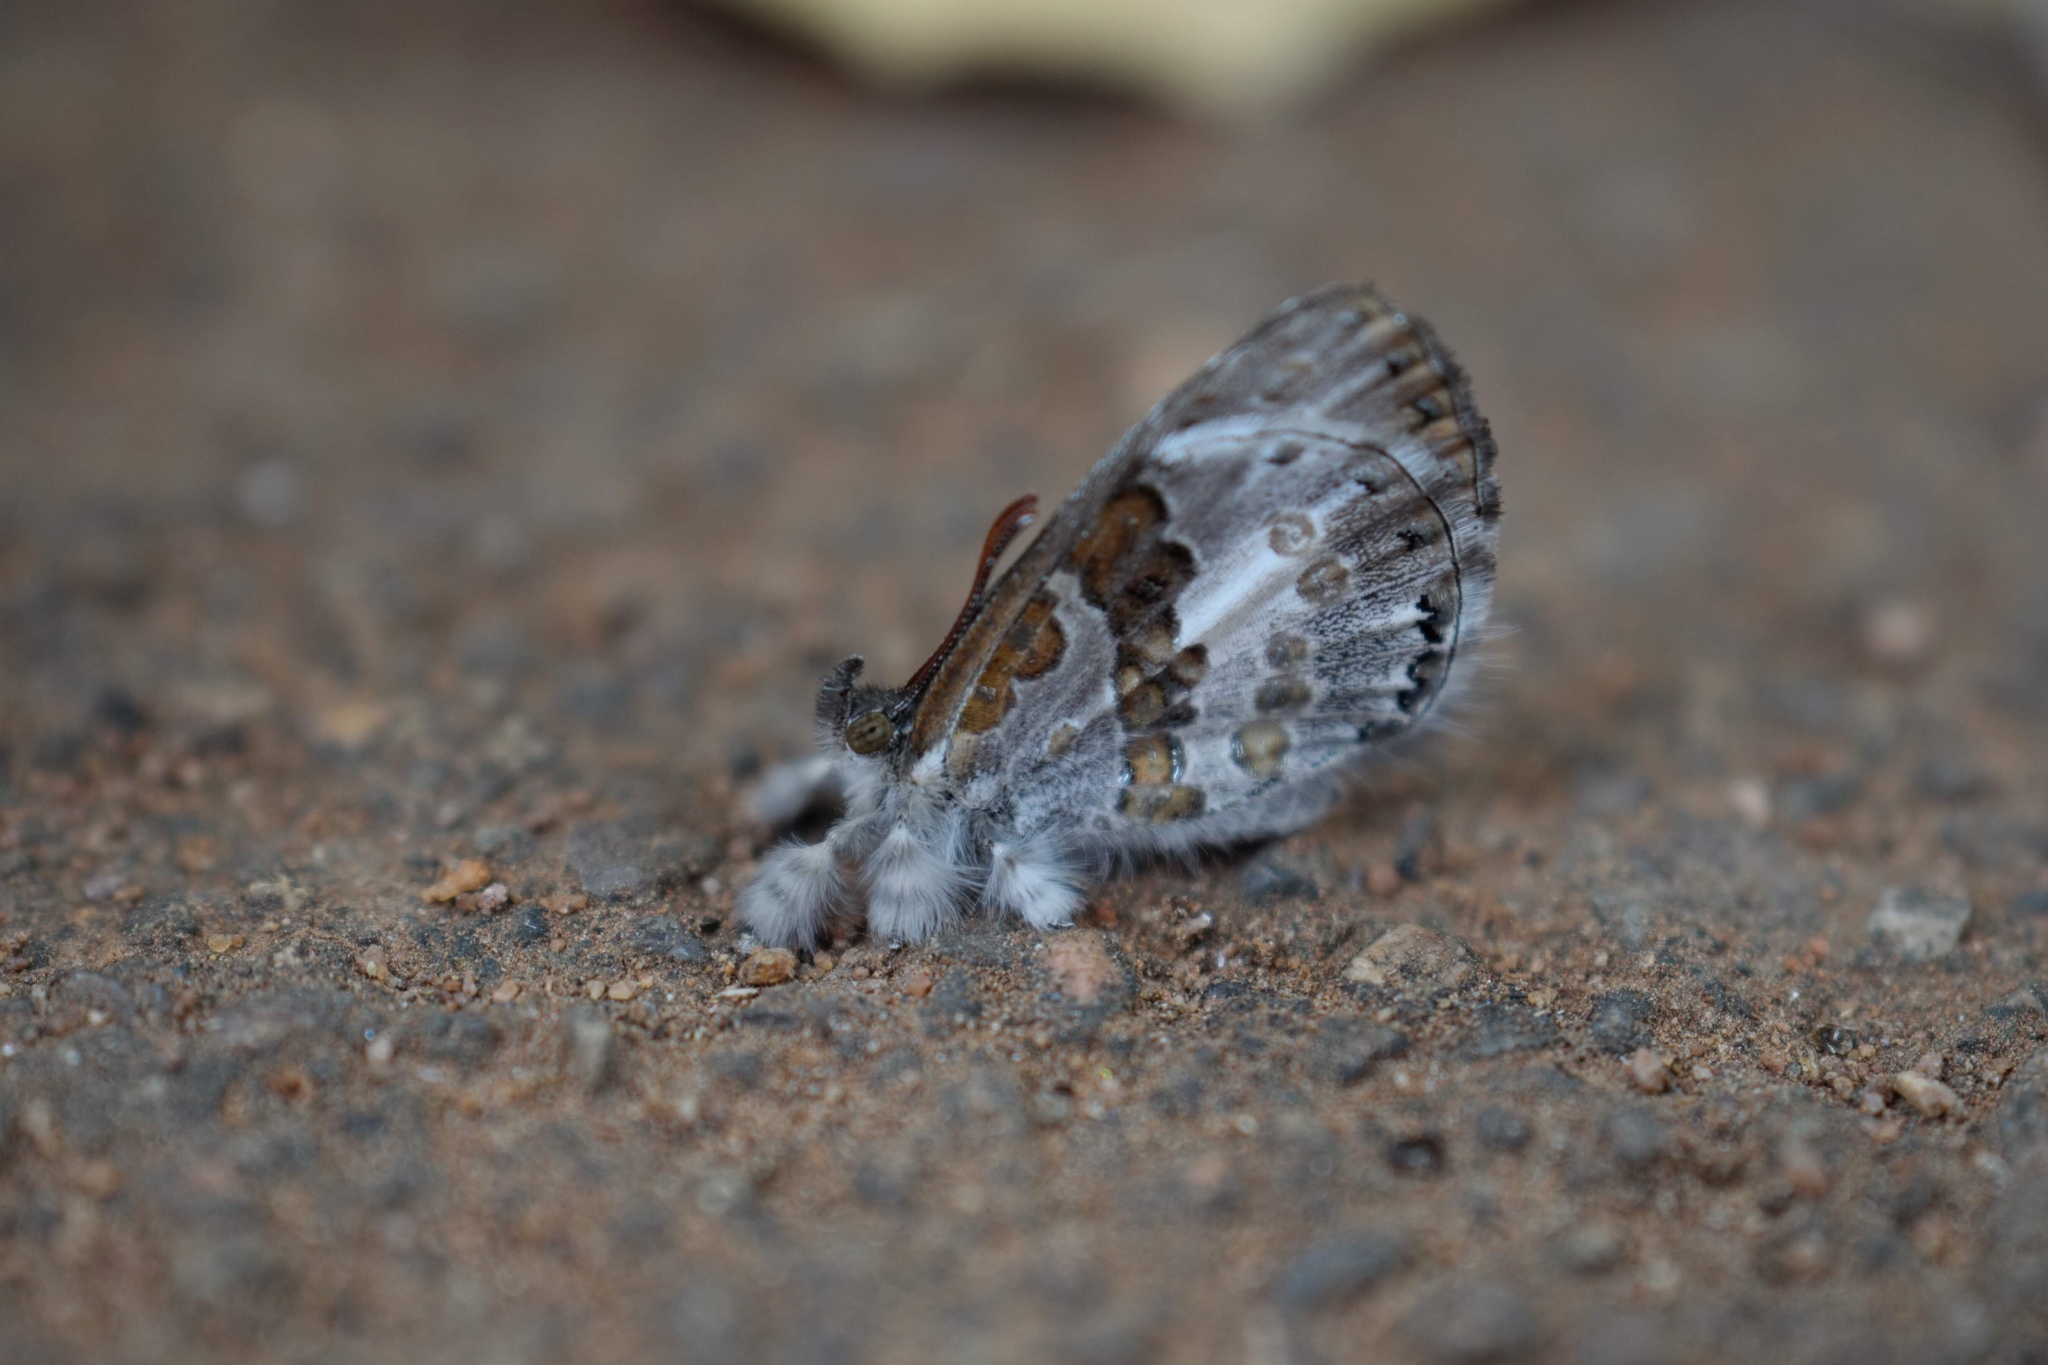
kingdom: Animalia
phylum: Arthropoda
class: Insecta
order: Lepidoptera
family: Lycaenidae
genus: Lachnocnema
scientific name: Lachnocnema bibulus
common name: Common woolly legs
